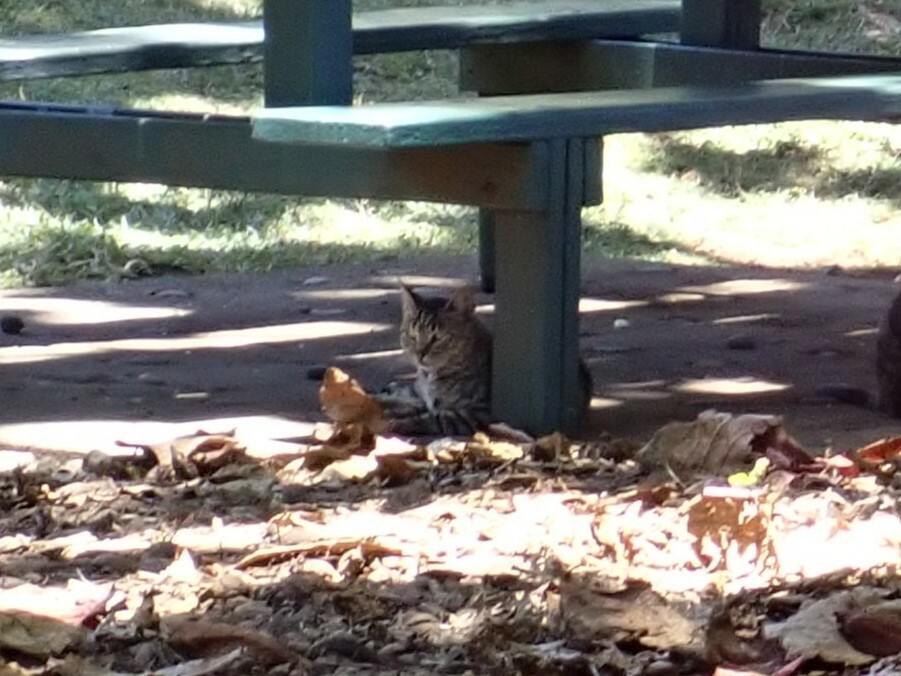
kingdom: Animalia
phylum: Chordata
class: Mammalia
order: Carnivora
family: Felidae
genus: Felis
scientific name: Felis catus
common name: Domestic cat
